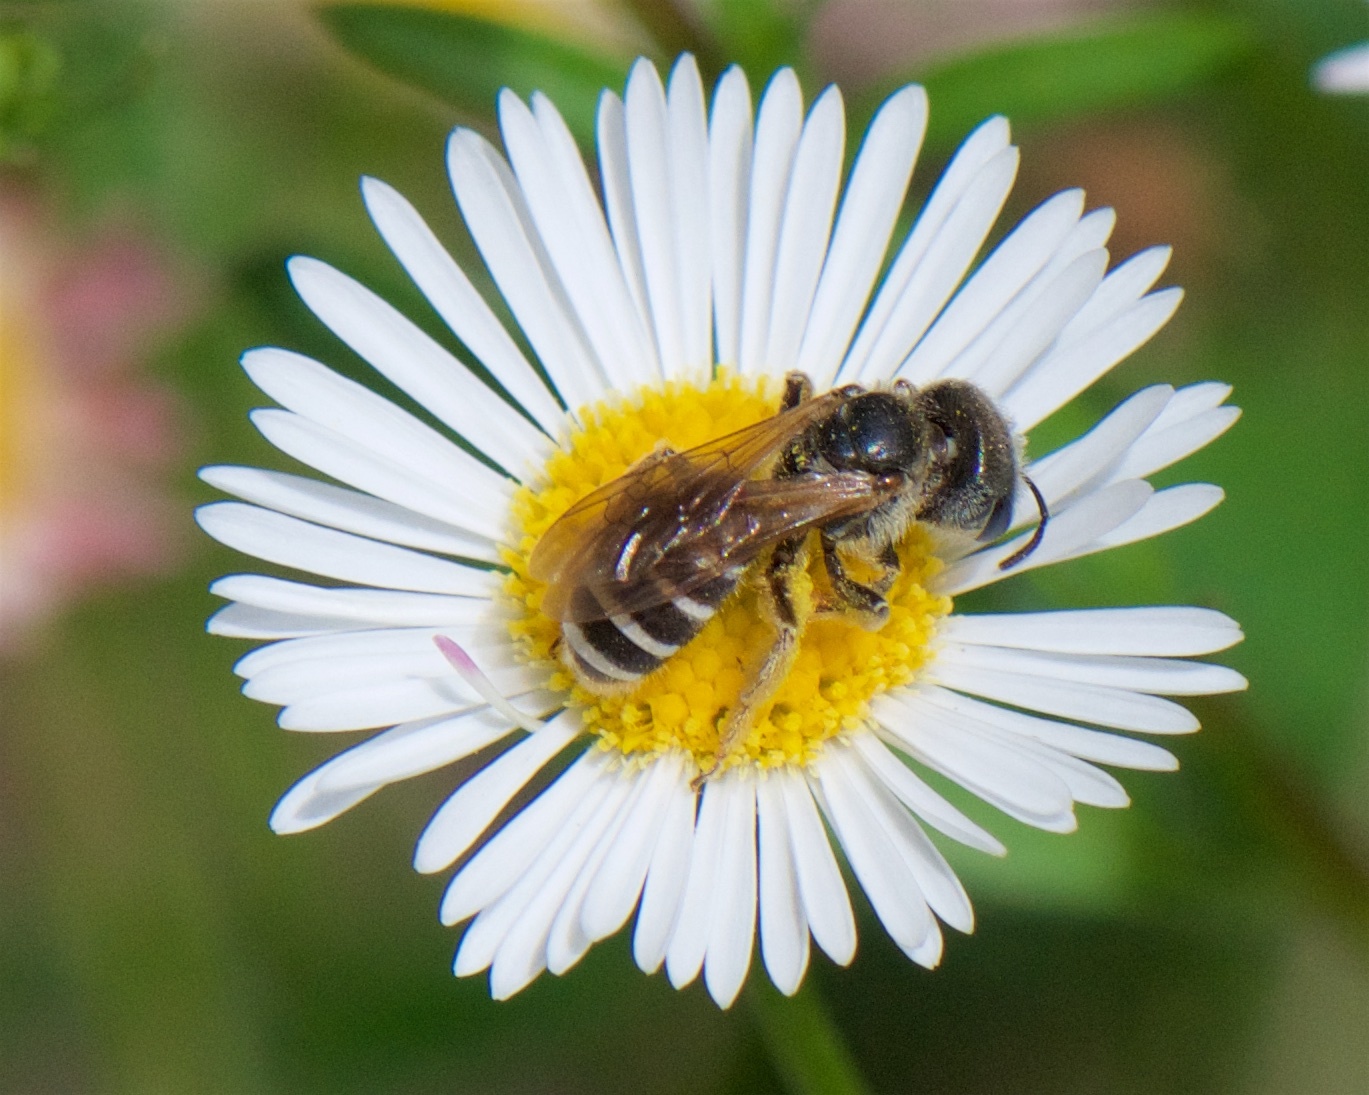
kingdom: Animalia
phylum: Arthropoda
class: Insecta
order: Hymenoptera
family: Halictidae
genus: Halictus
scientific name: Halictus ligatus
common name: Ligated furrow bee
